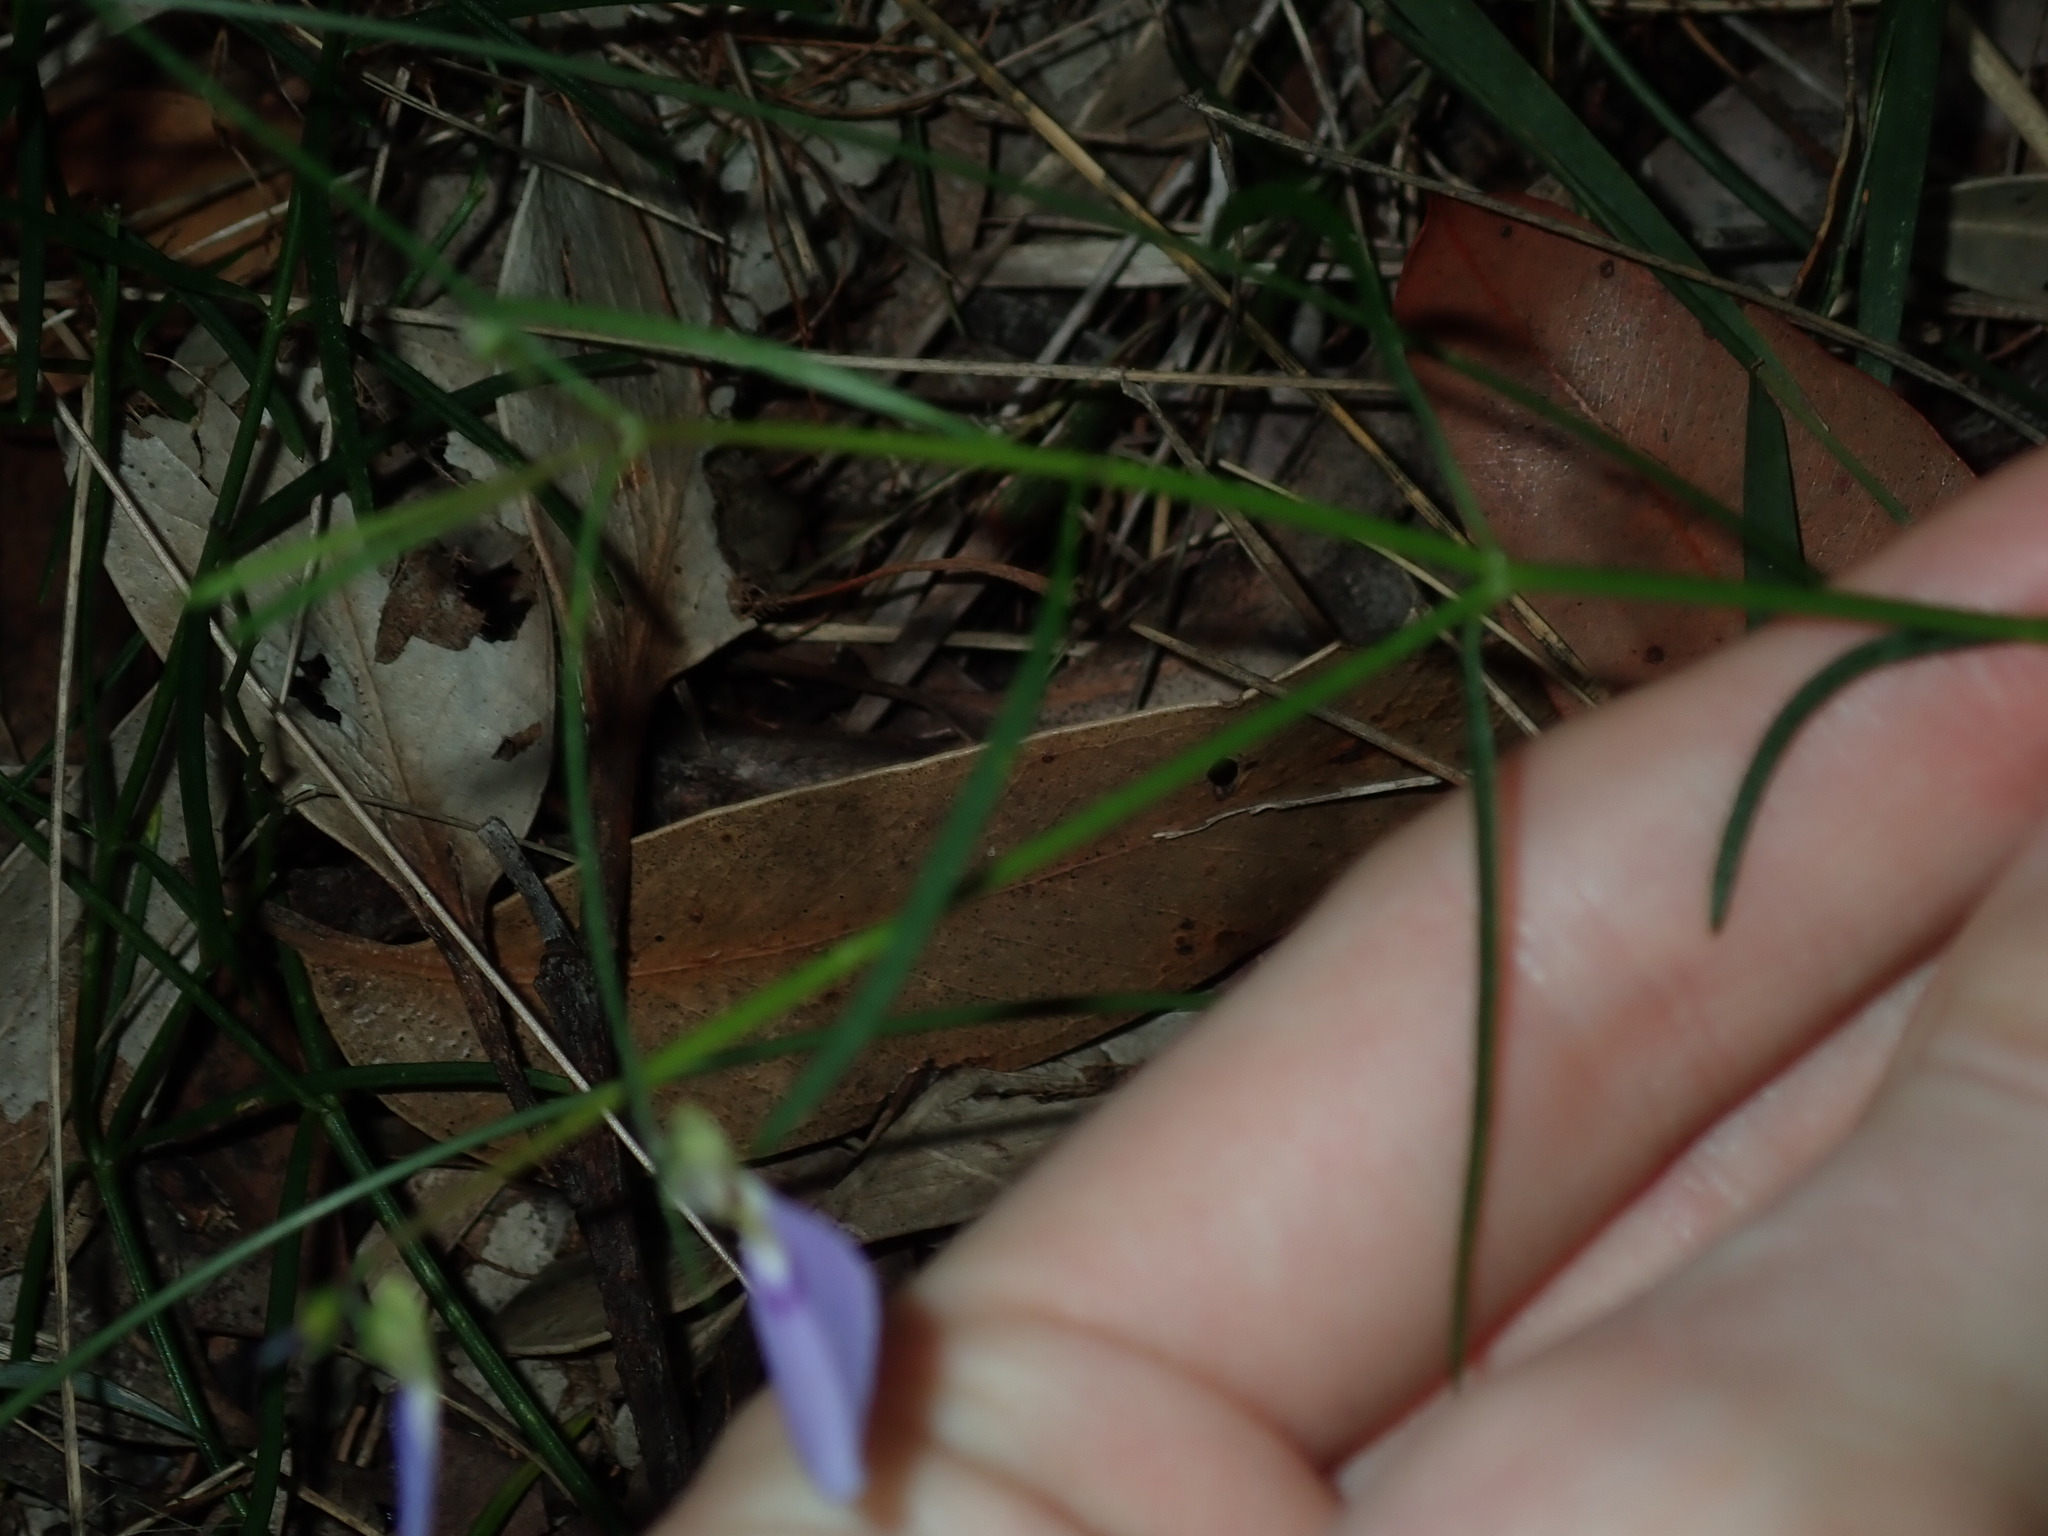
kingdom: Plantae
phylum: Tracheophyta
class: Magnoliopsida
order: Malpighiales
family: Violaceae
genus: Pigea
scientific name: Pigea monopetala
